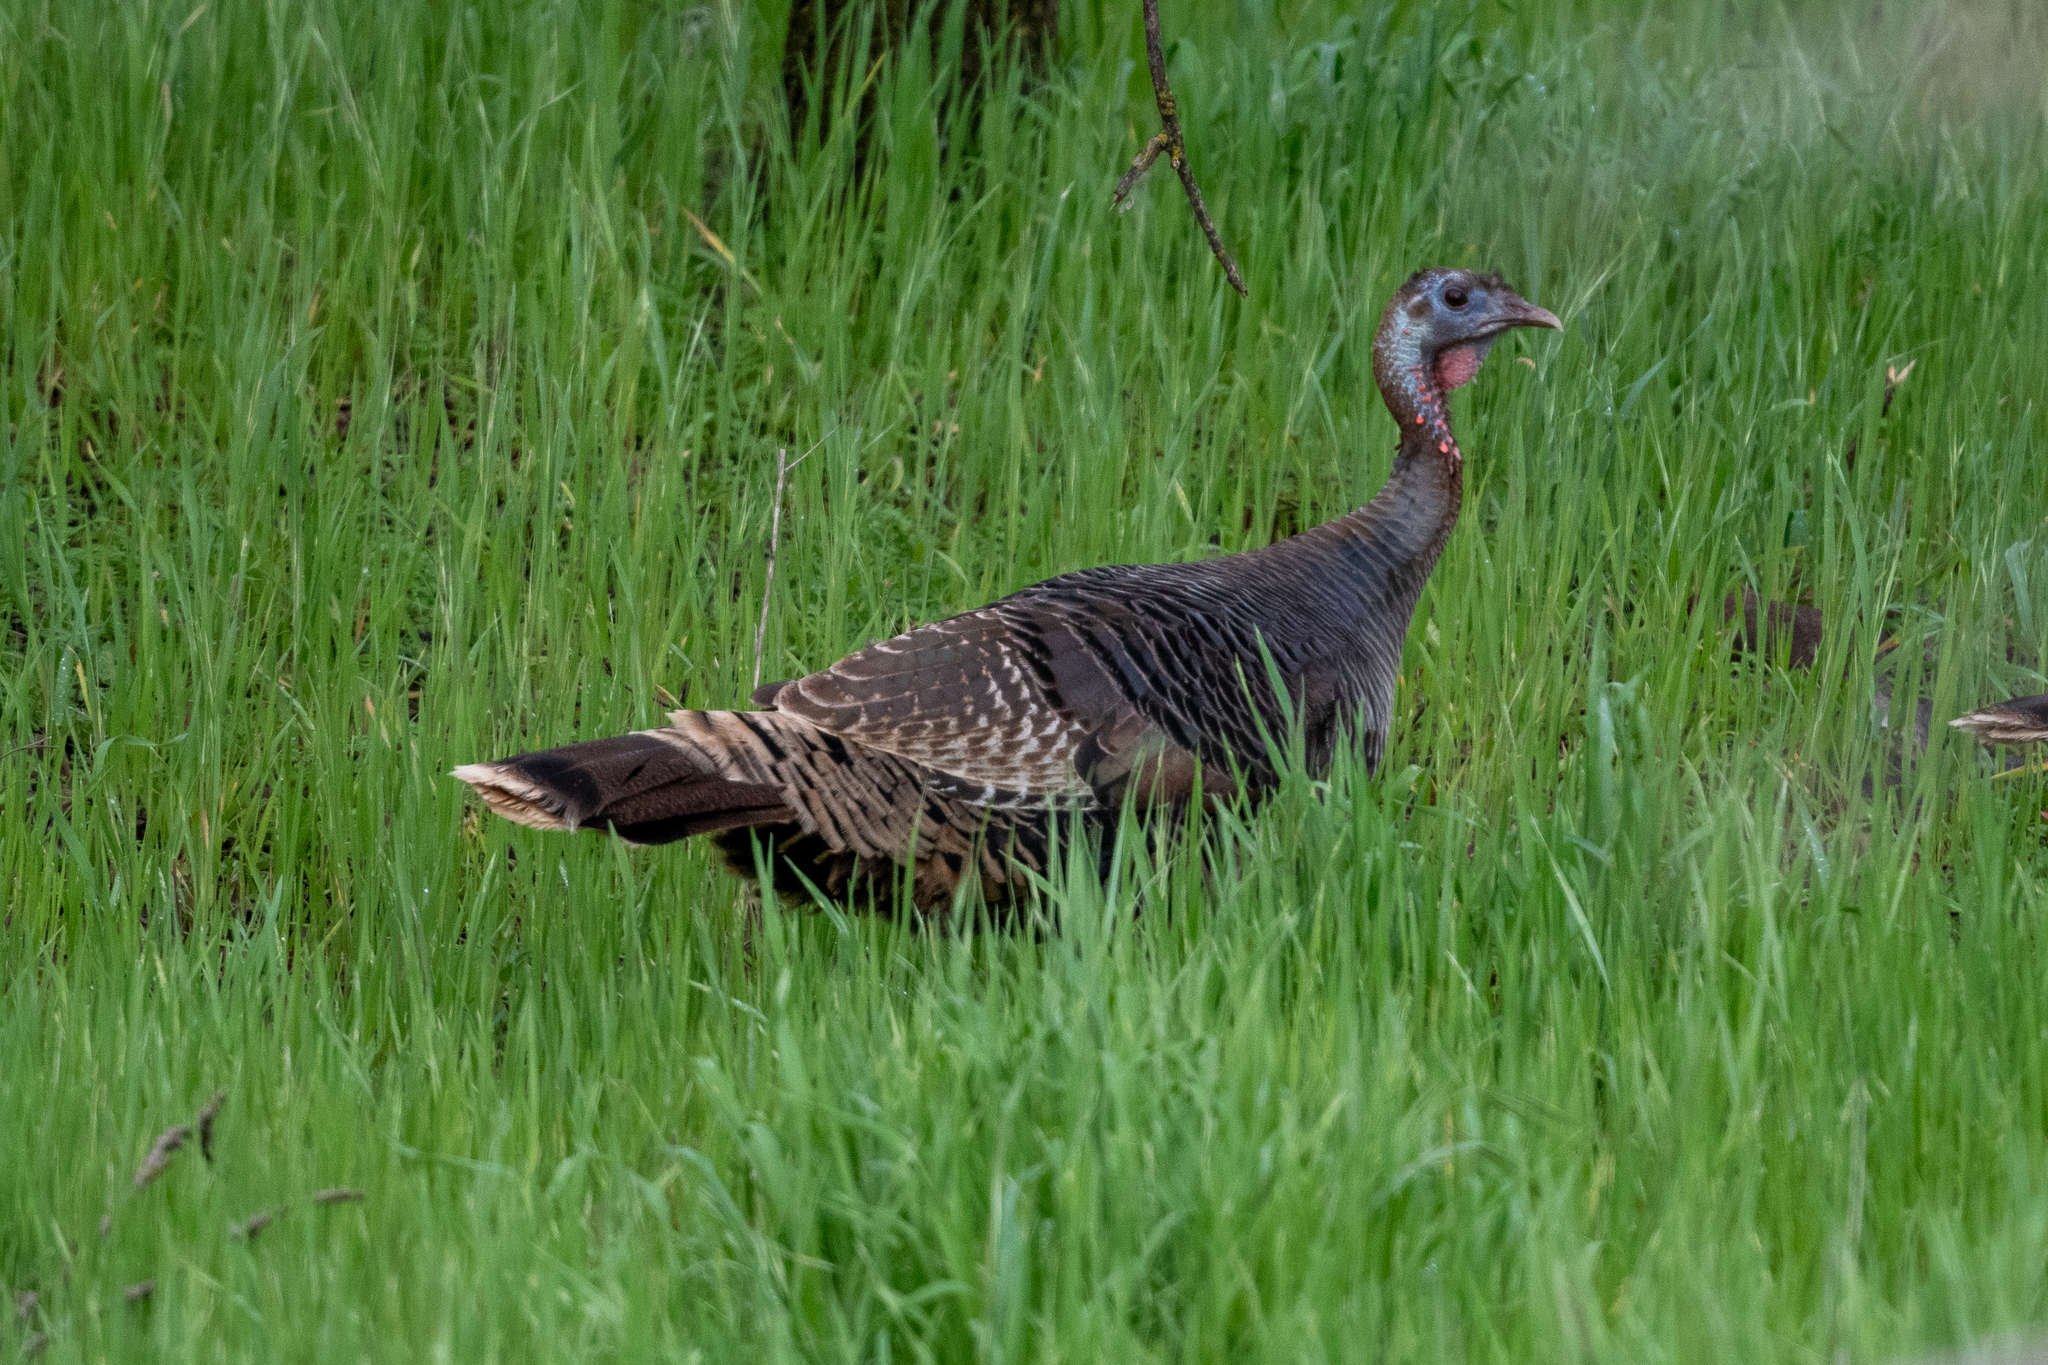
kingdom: Animalia
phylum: Chordata
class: Aves
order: Galliformes
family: Phasianidae
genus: Meleagris
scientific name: Meleagris gallopavo
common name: Wild turkey
